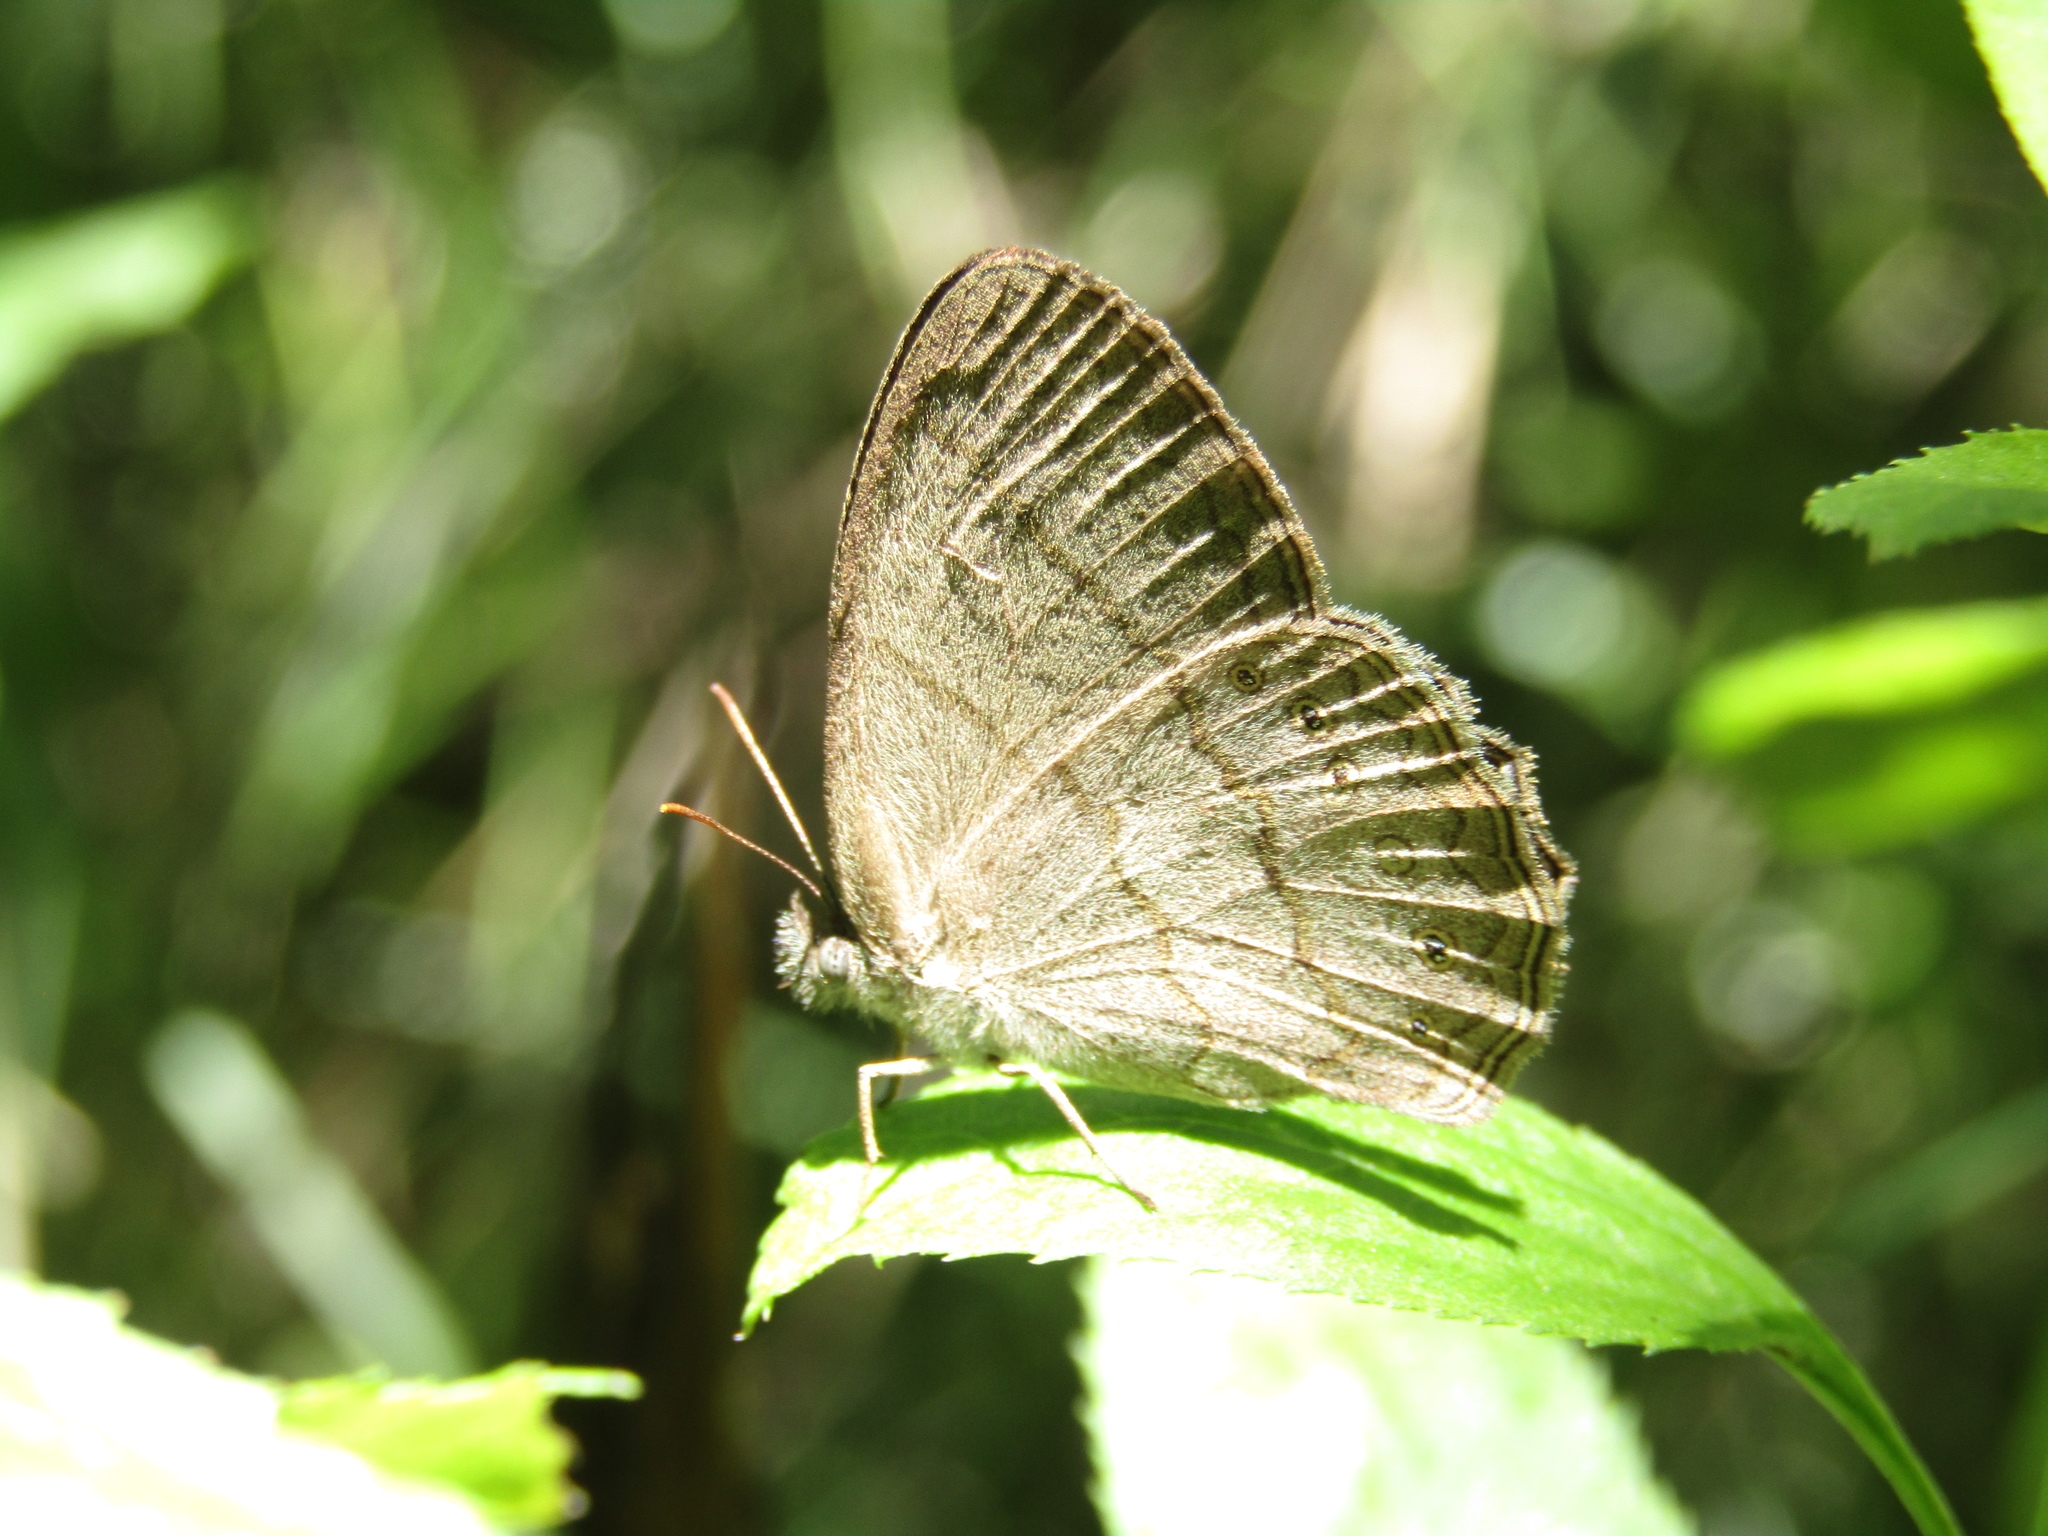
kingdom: Animalia
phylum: Arthropoda
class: Insecta
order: Lepidoptera
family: Nymphalidae
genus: Paryphthimoides
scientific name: Paryphthimoides poltys
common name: Poltys satyr
